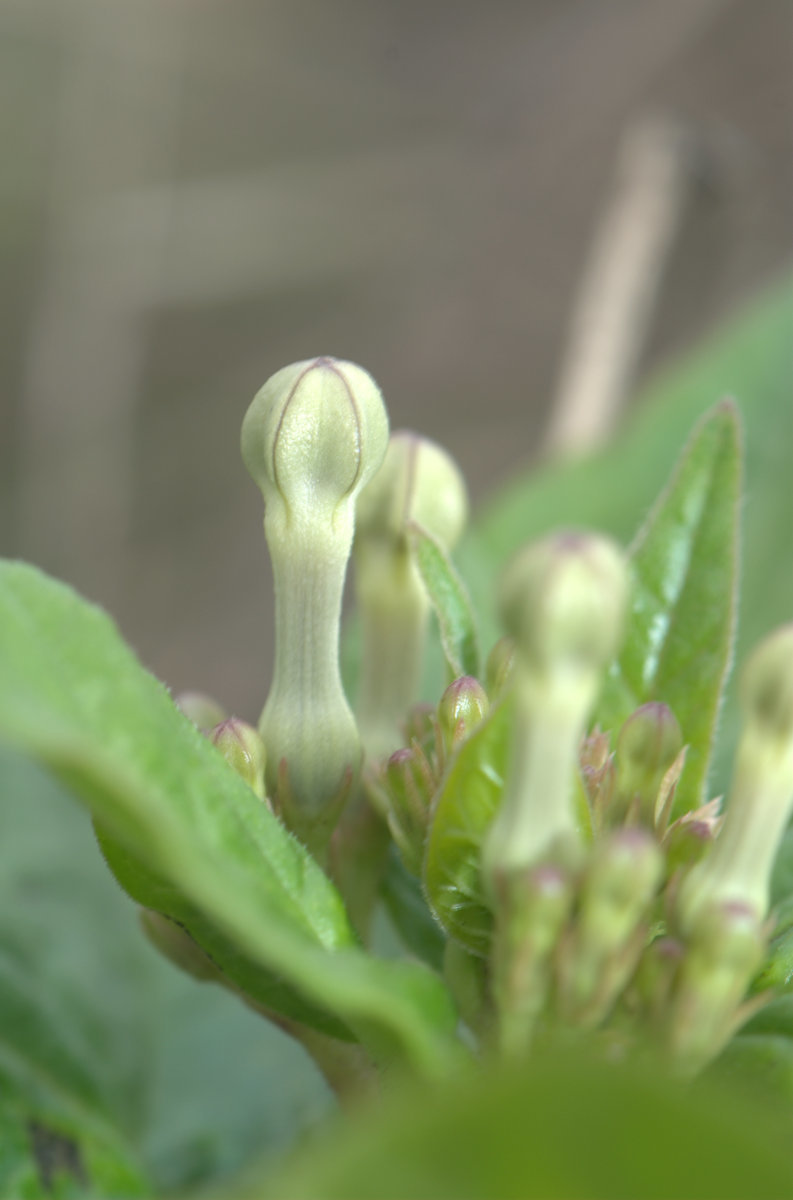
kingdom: Plantae
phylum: Tracheophyta
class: Magnoliopsida
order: Gentianales
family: Apocynaceae
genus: Ceropegia
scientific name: Ceropegia lawii
